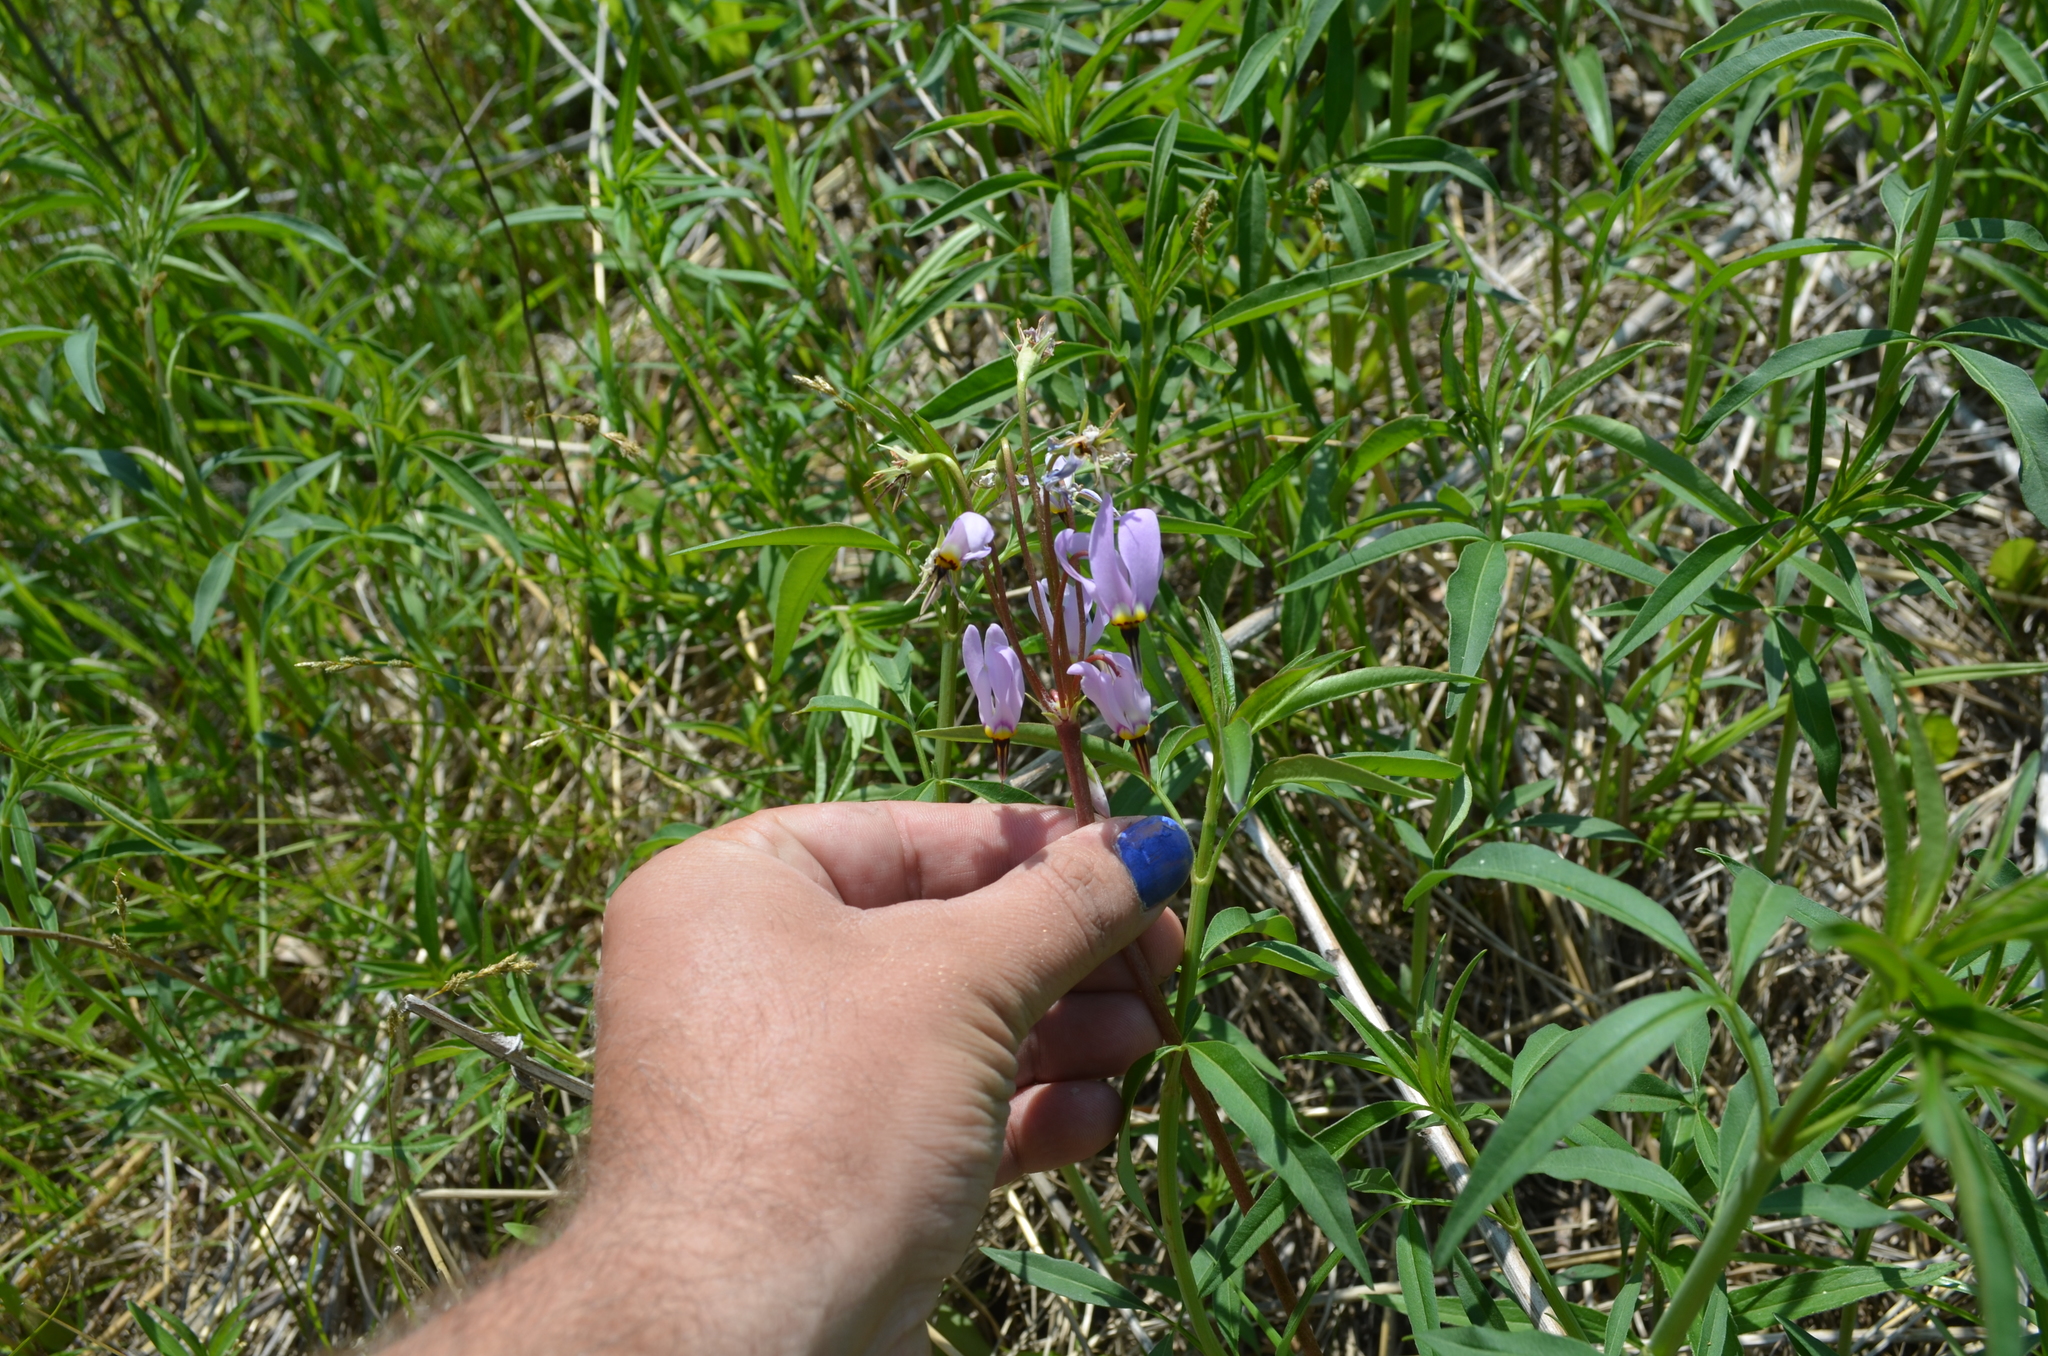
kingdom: Plantae
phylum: Tracheophyta
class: Magnoliopsida
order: Ericales
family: Primulaceae
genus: Dodecatheon
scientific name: Dodecatheon meadia
